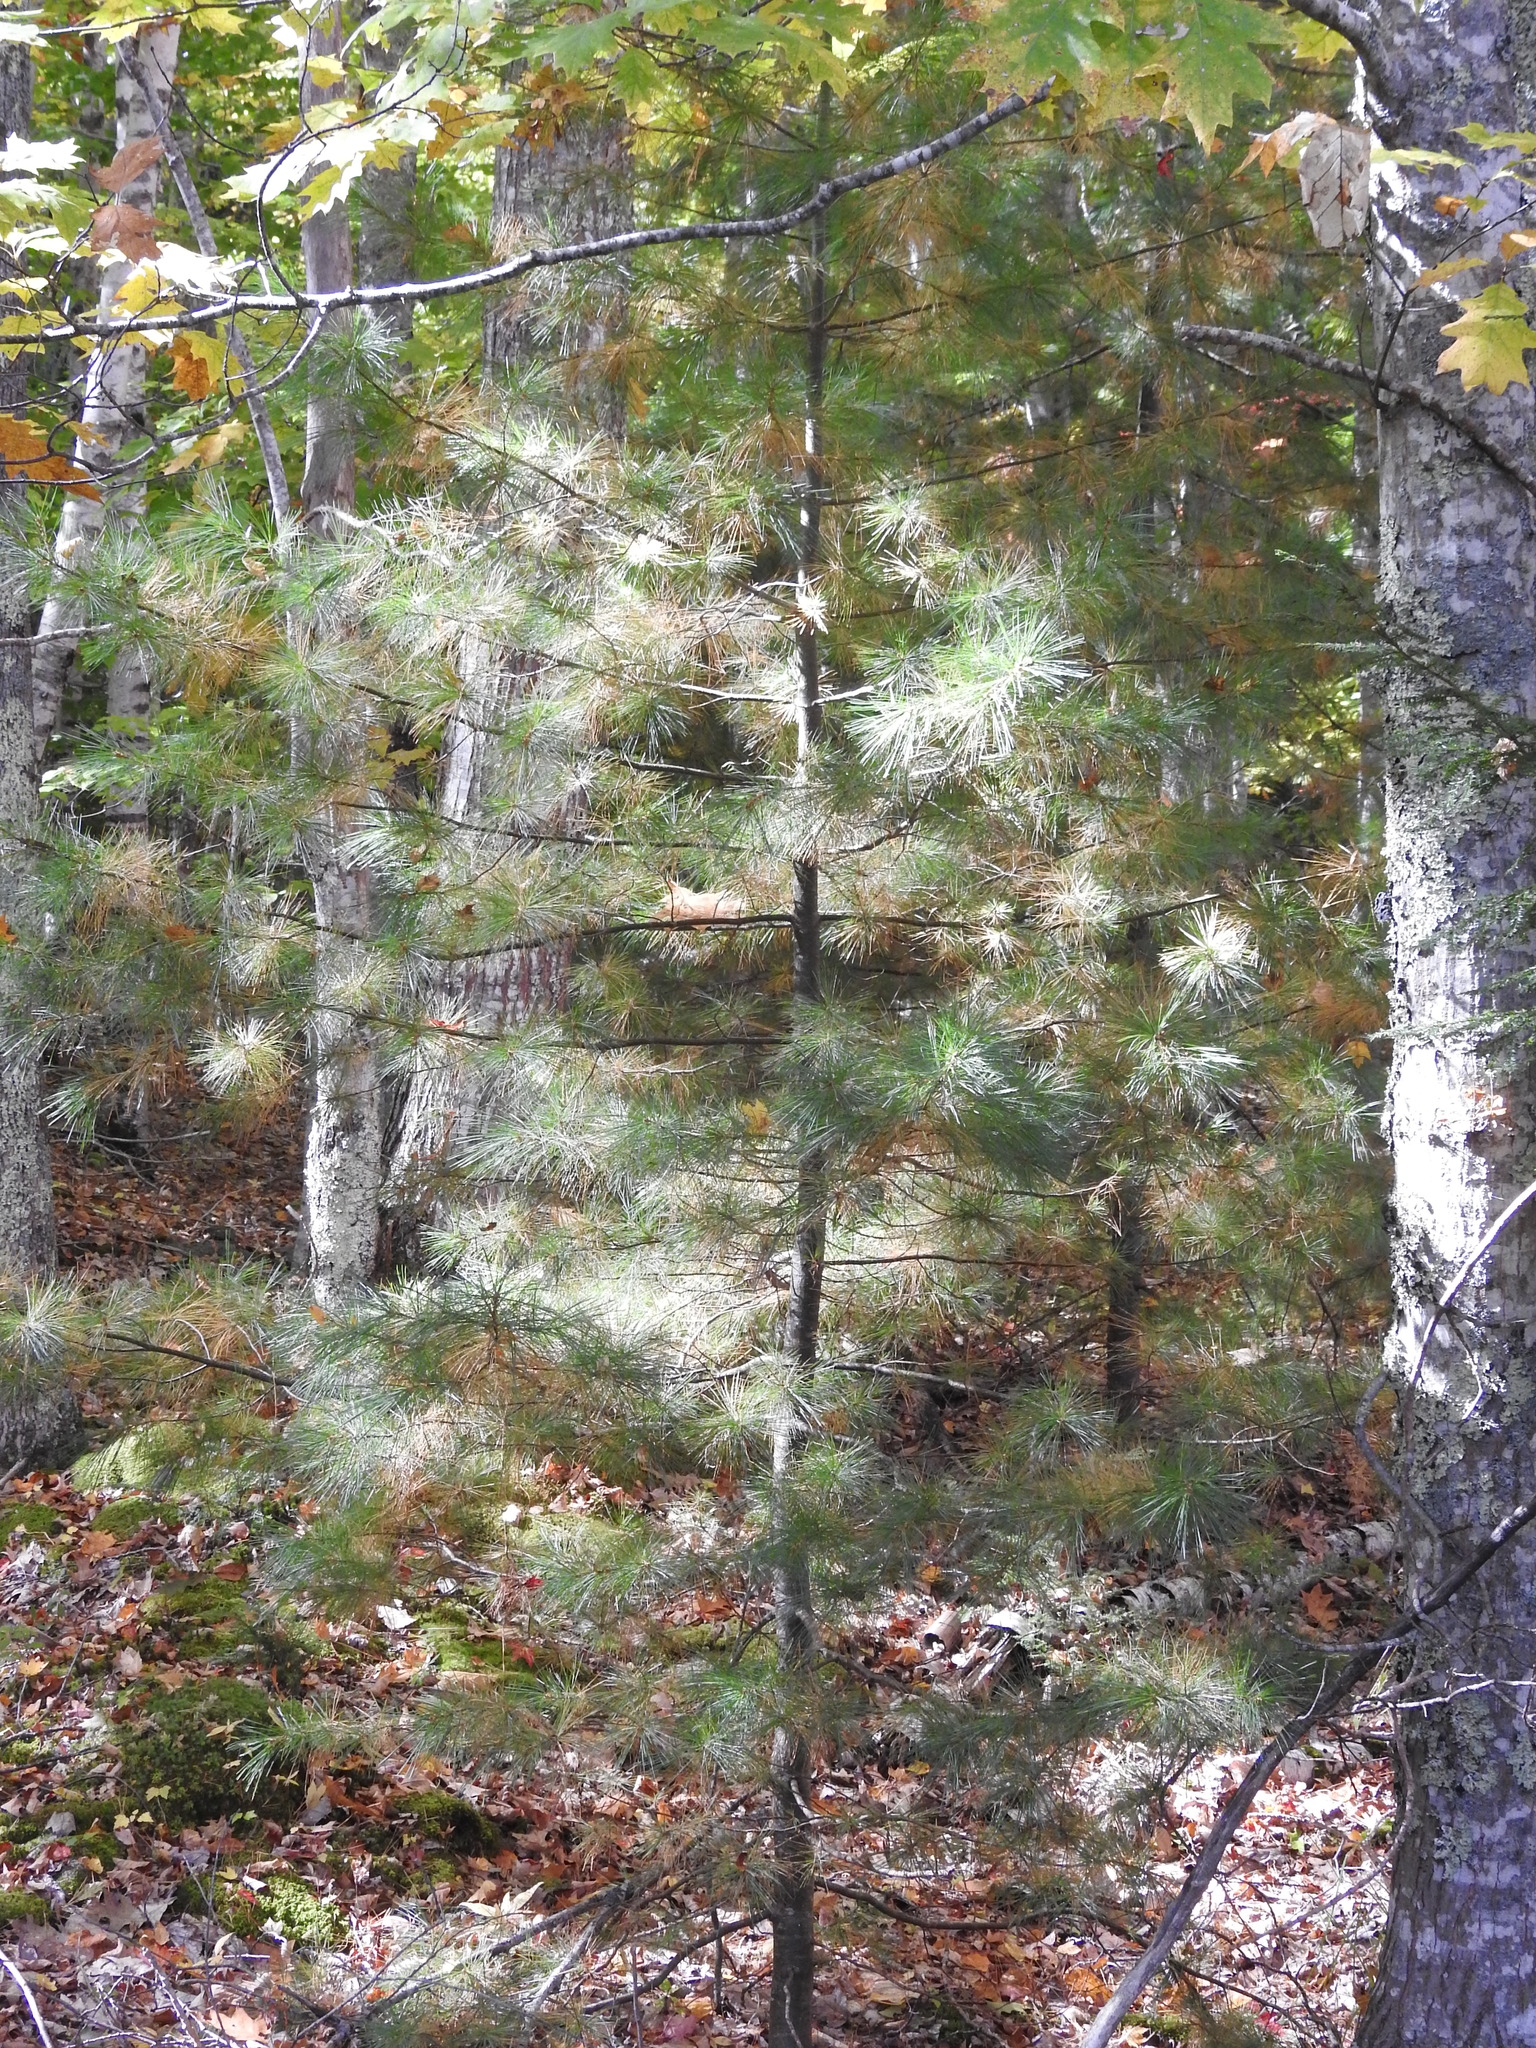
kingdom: Plantae
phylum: Tracheophyta
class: Pinopsida
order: Pinales
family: Pinaceae
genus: Pinus
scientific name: Pinus strobus
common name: Weymouth pine
